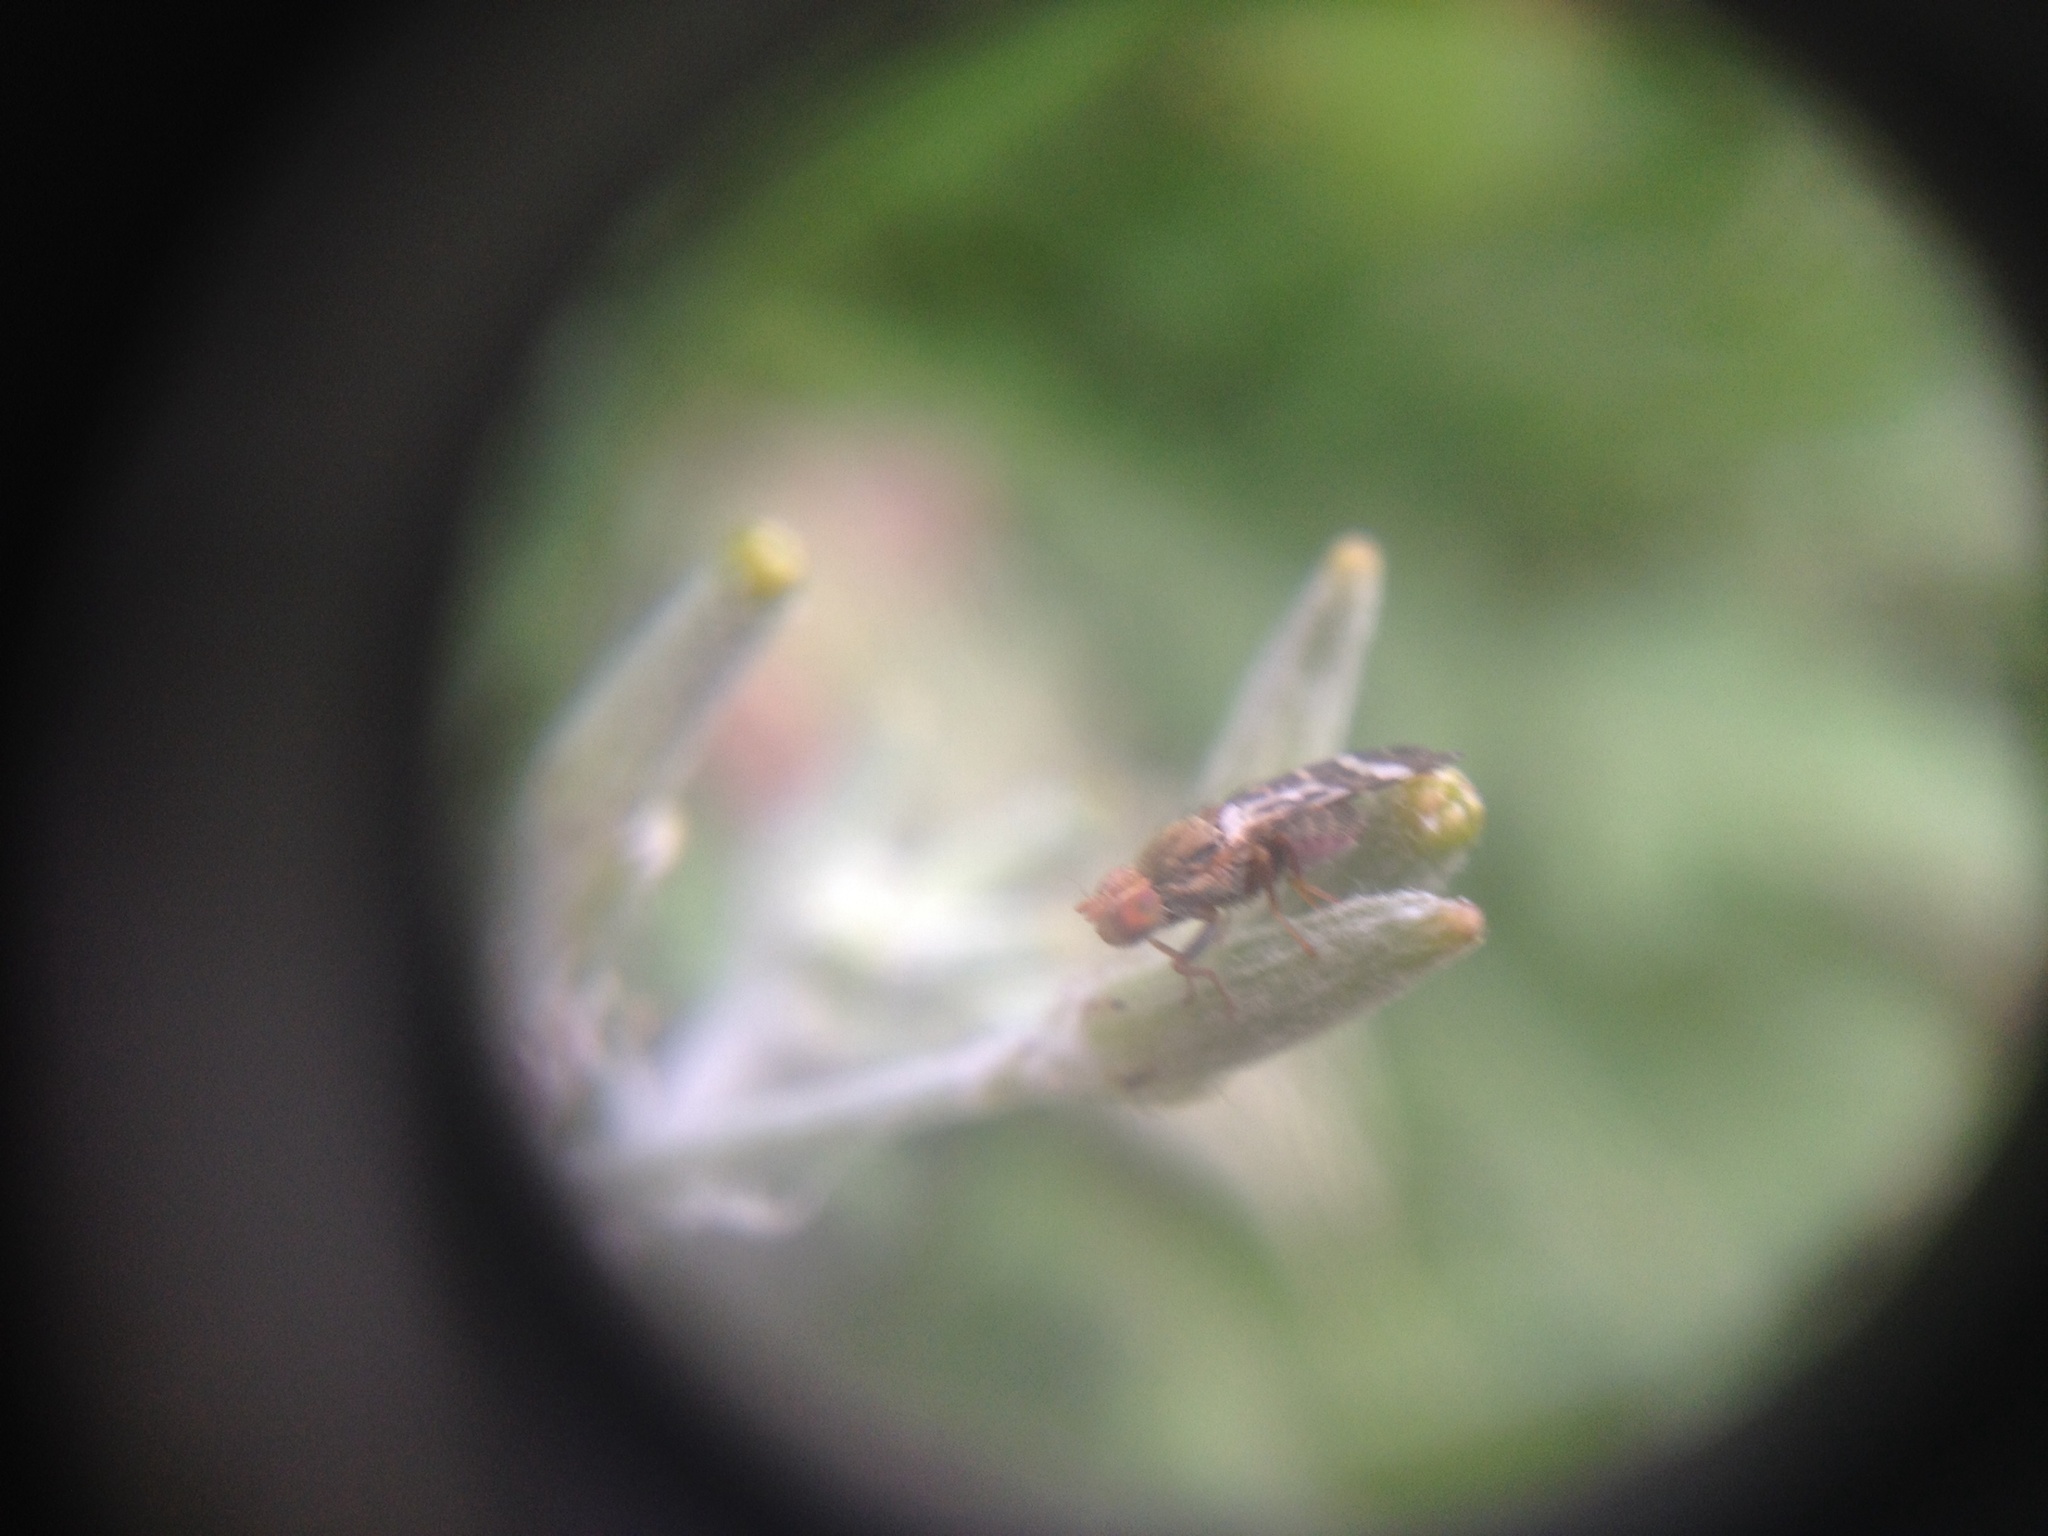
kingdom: Animalia
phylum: Arthropoda
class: Insecta
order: Diptera
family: Tephritidae
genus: Sphenella
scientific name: Sphenella
